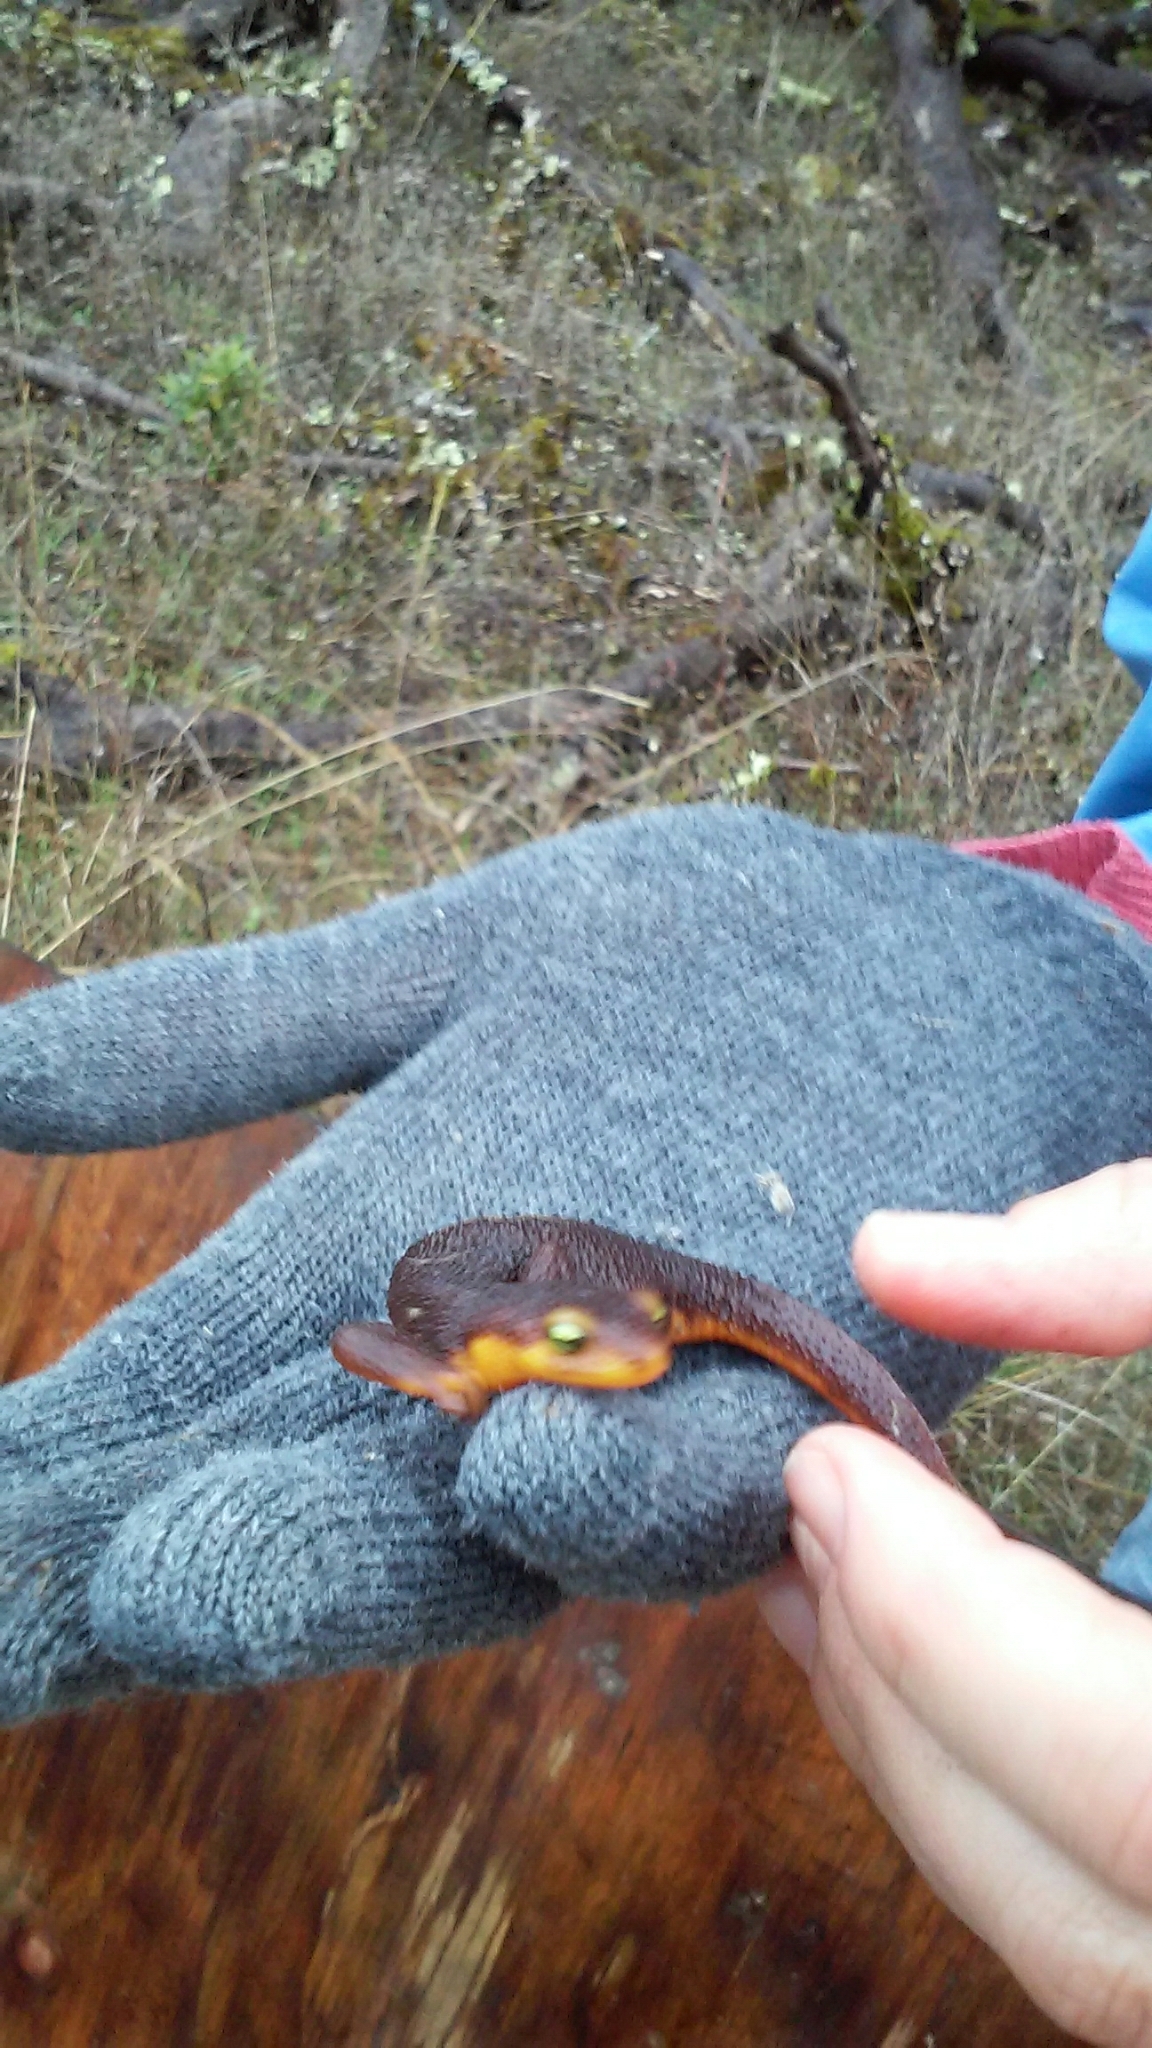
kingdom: Animalia
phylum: Chordata
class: Amphibia
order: Caudata
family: Salamandridae
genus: Taricha
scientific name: Taricha torosa
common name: California newt
